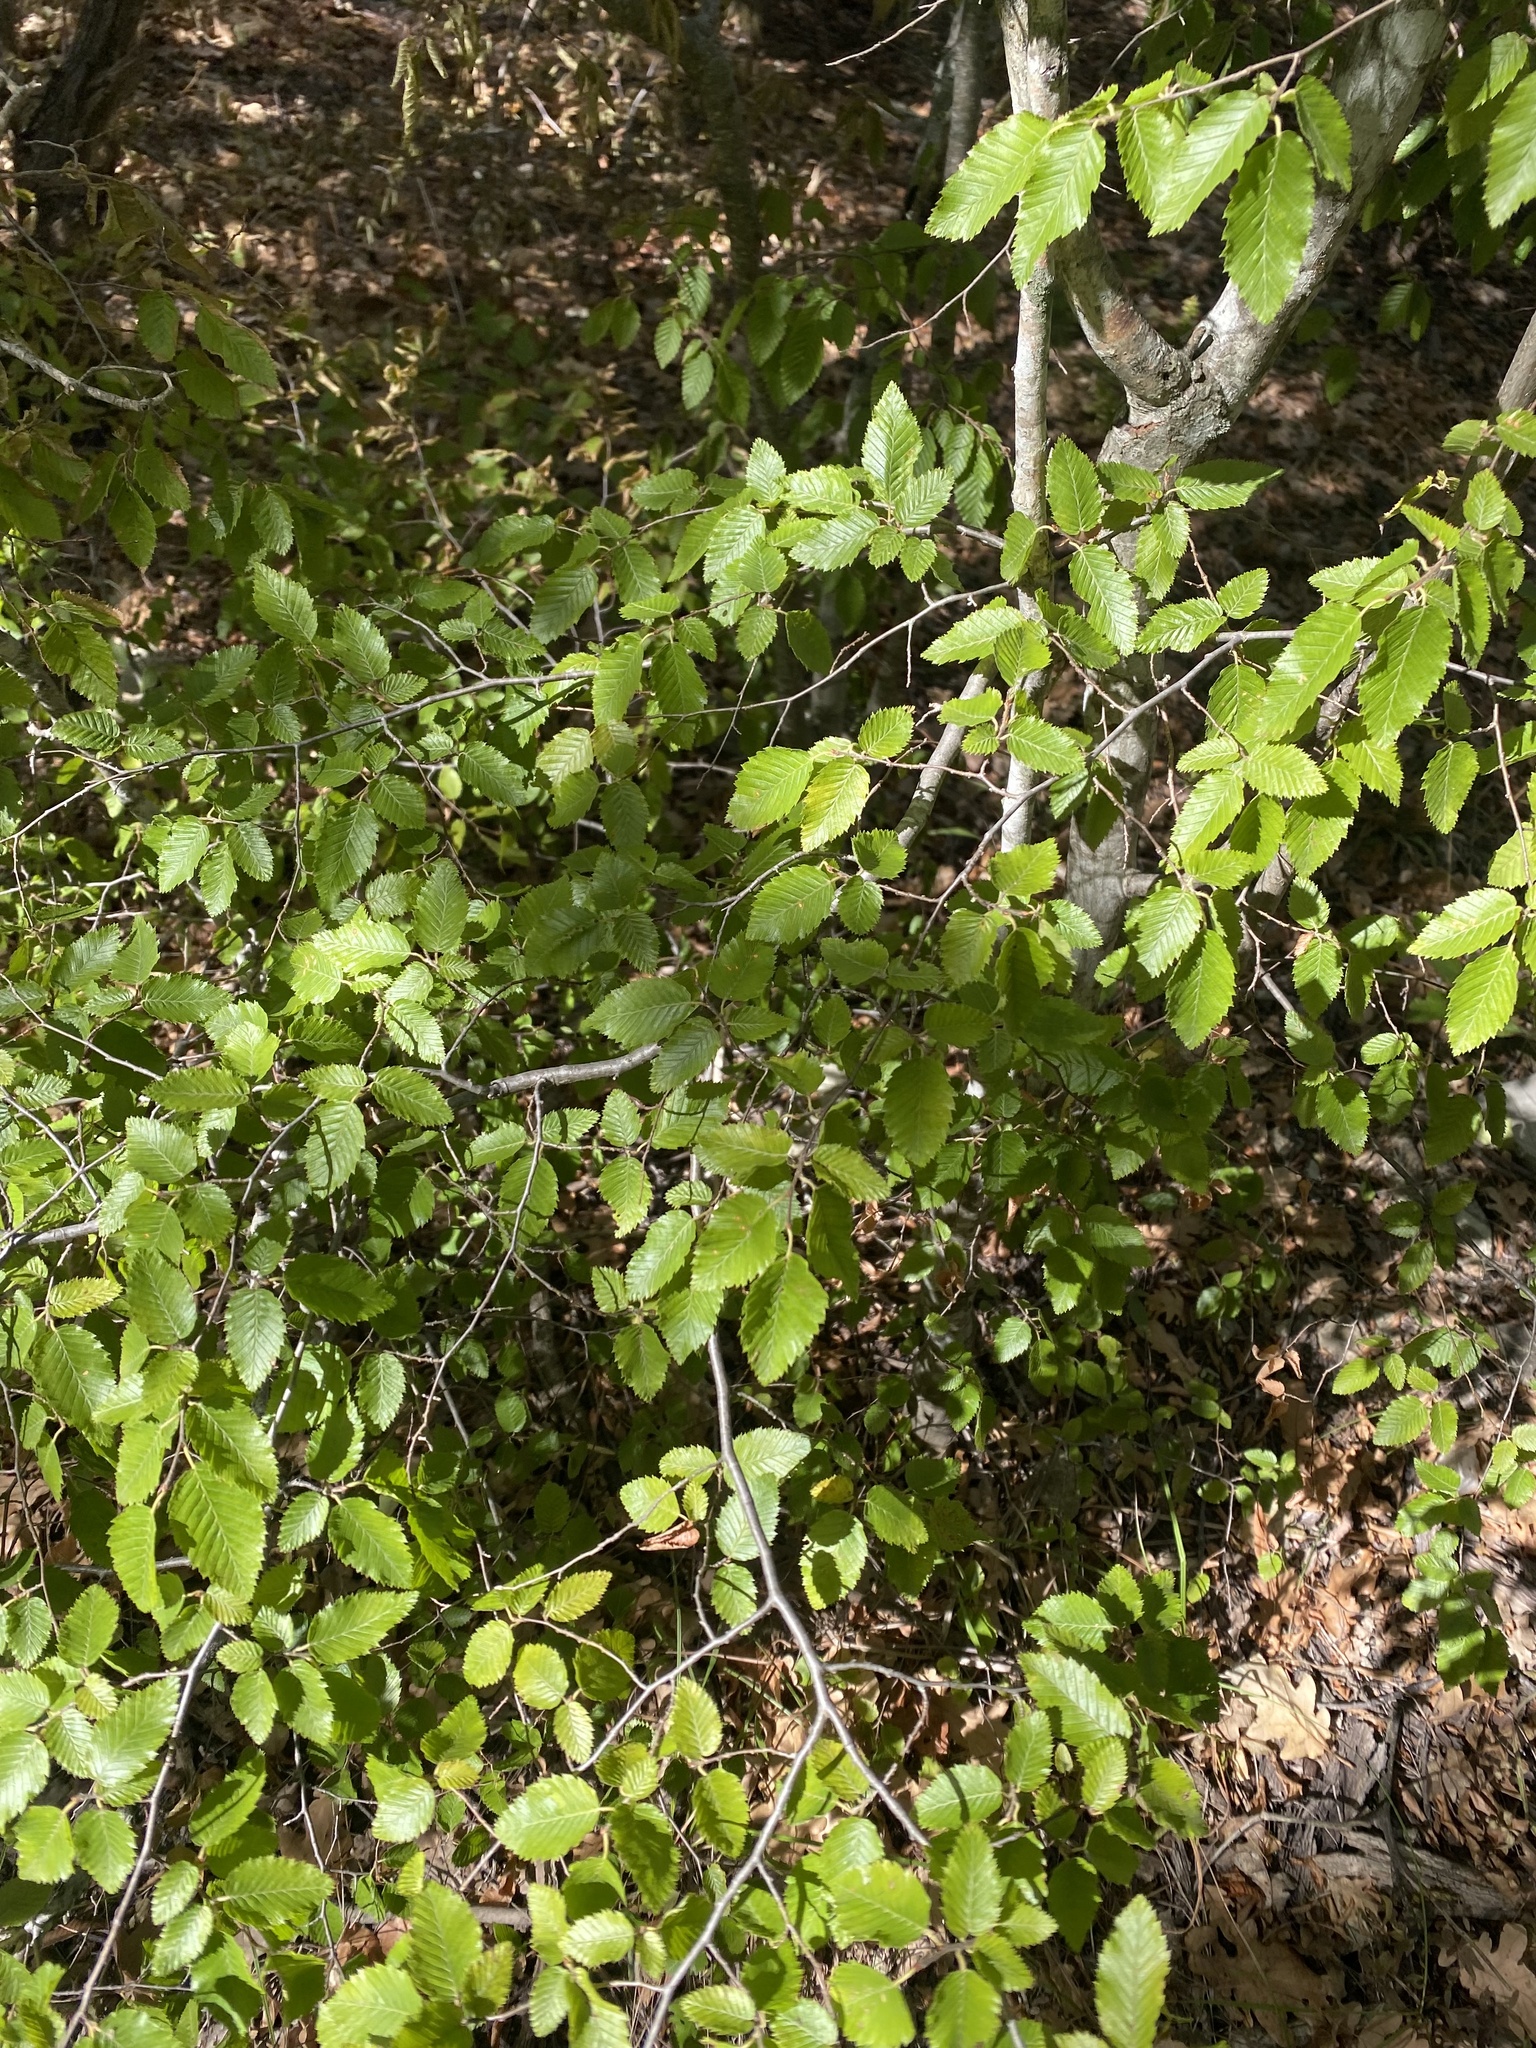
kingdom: Plantae
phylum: Tracheophyta
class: Magnoliopsida
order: Fagales
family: Betulaceae
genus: Carpinus
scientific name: Carpinus orientalis
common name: Eastern hornbeam
